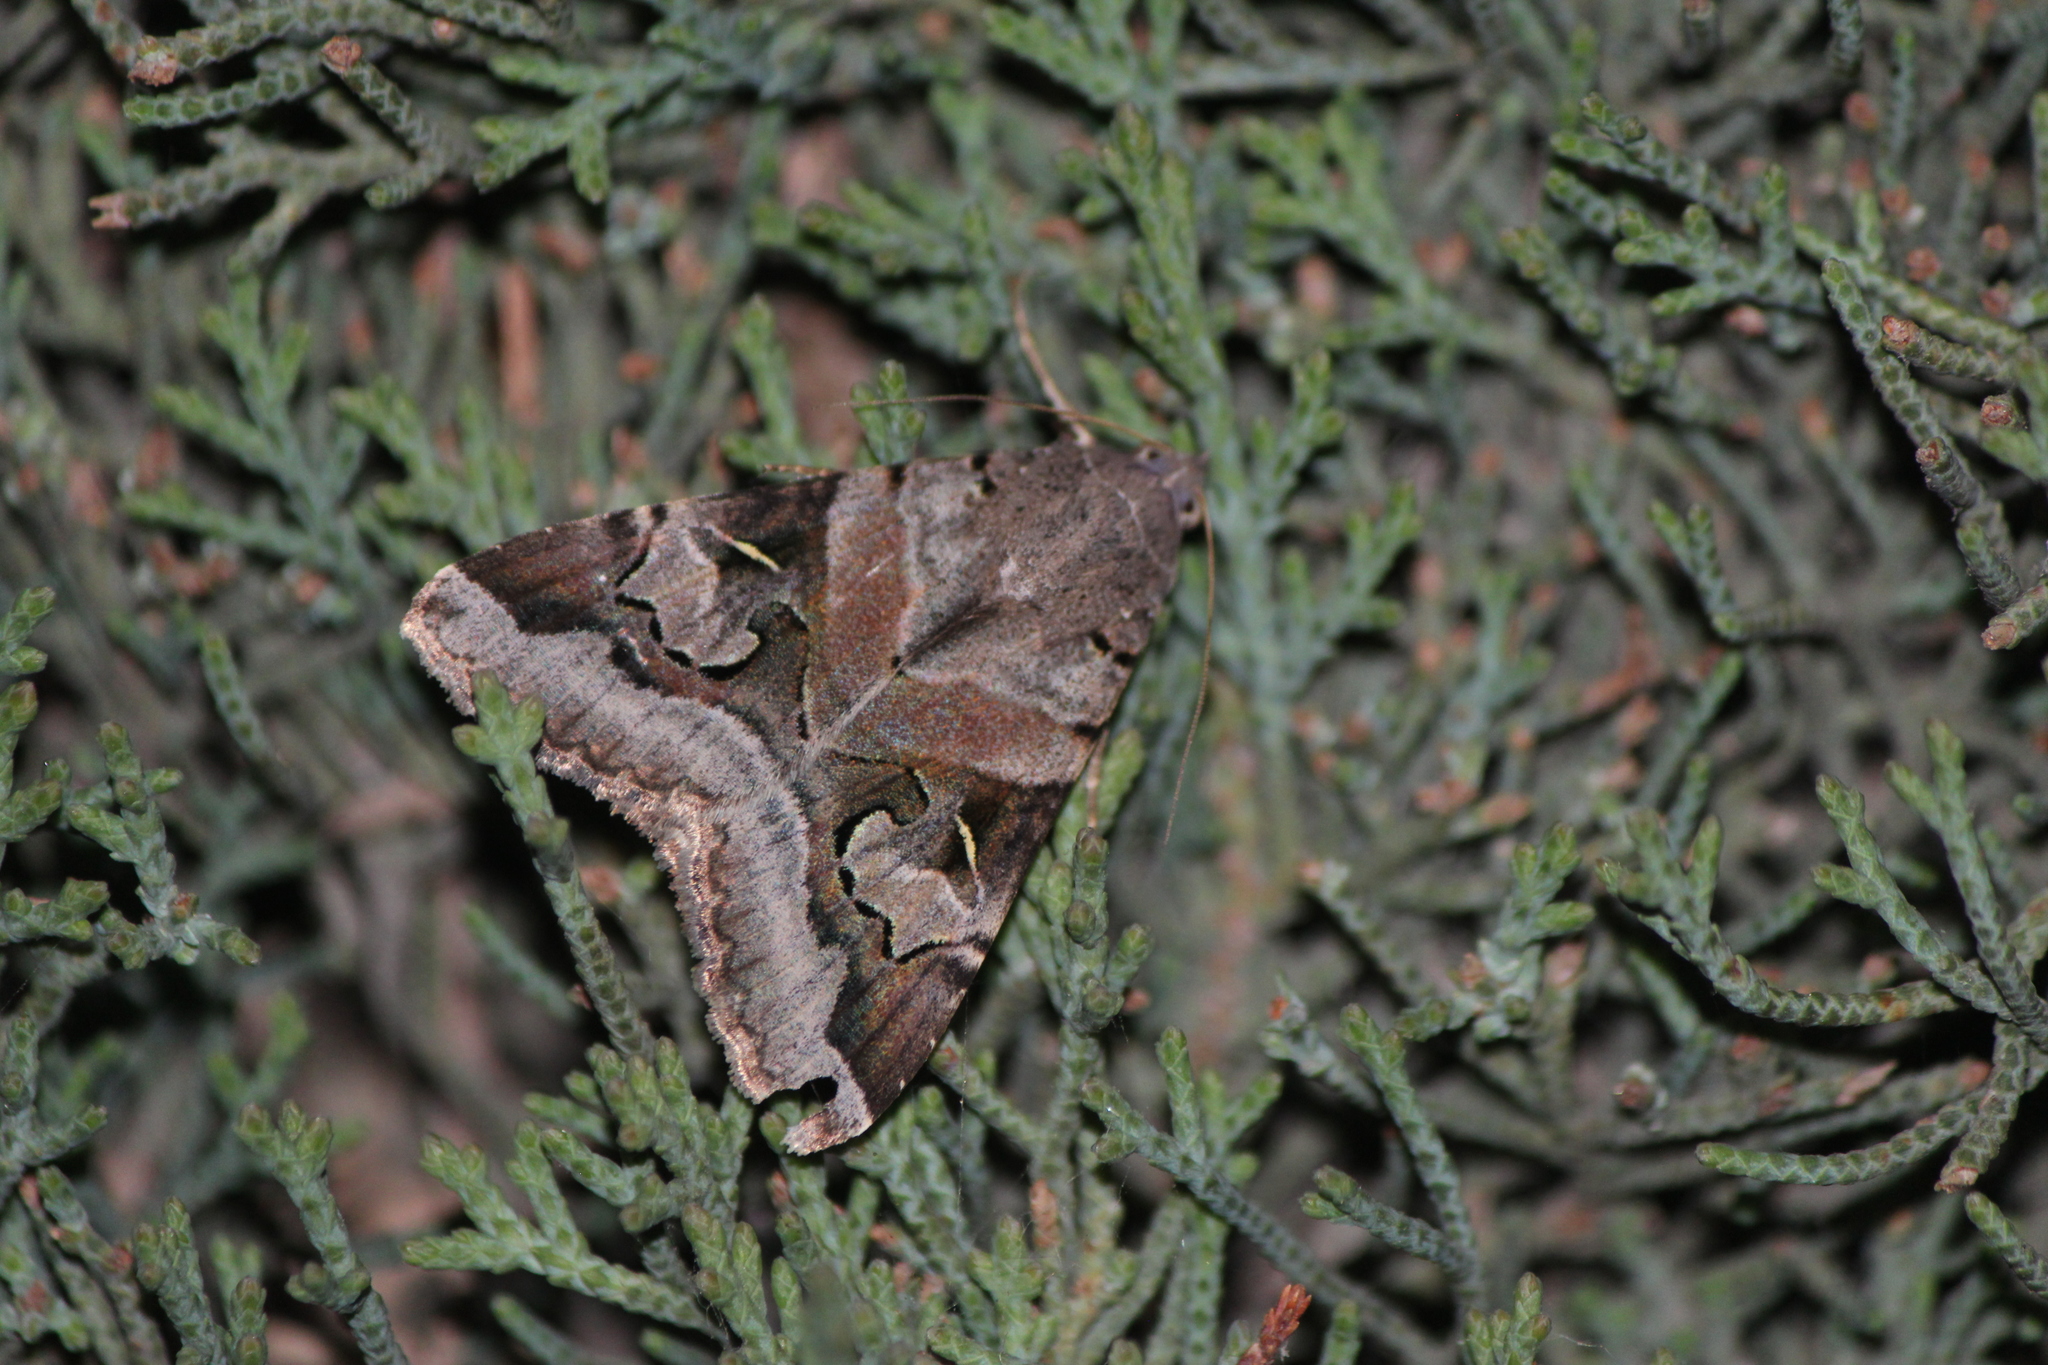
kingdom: Animalia
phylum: Arthropoda
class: Insecta
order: Lepidoptera
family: Erebidae
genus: Melipotis
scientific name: Melipotis indomita
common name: Moth
